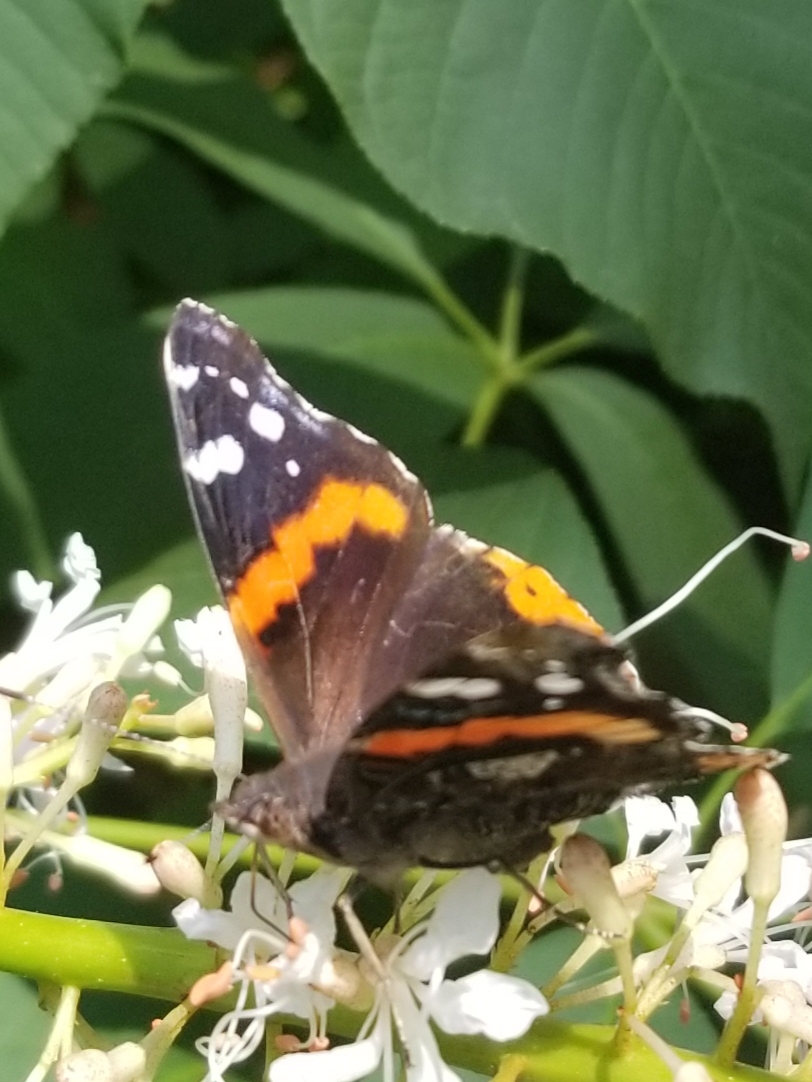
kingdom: Animalia
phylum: Arthropoda
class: Insecta
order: Lepidoptera
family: Nymphalidae
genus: Vanessa
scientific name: Vanessa atalanta
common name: Red admiral
